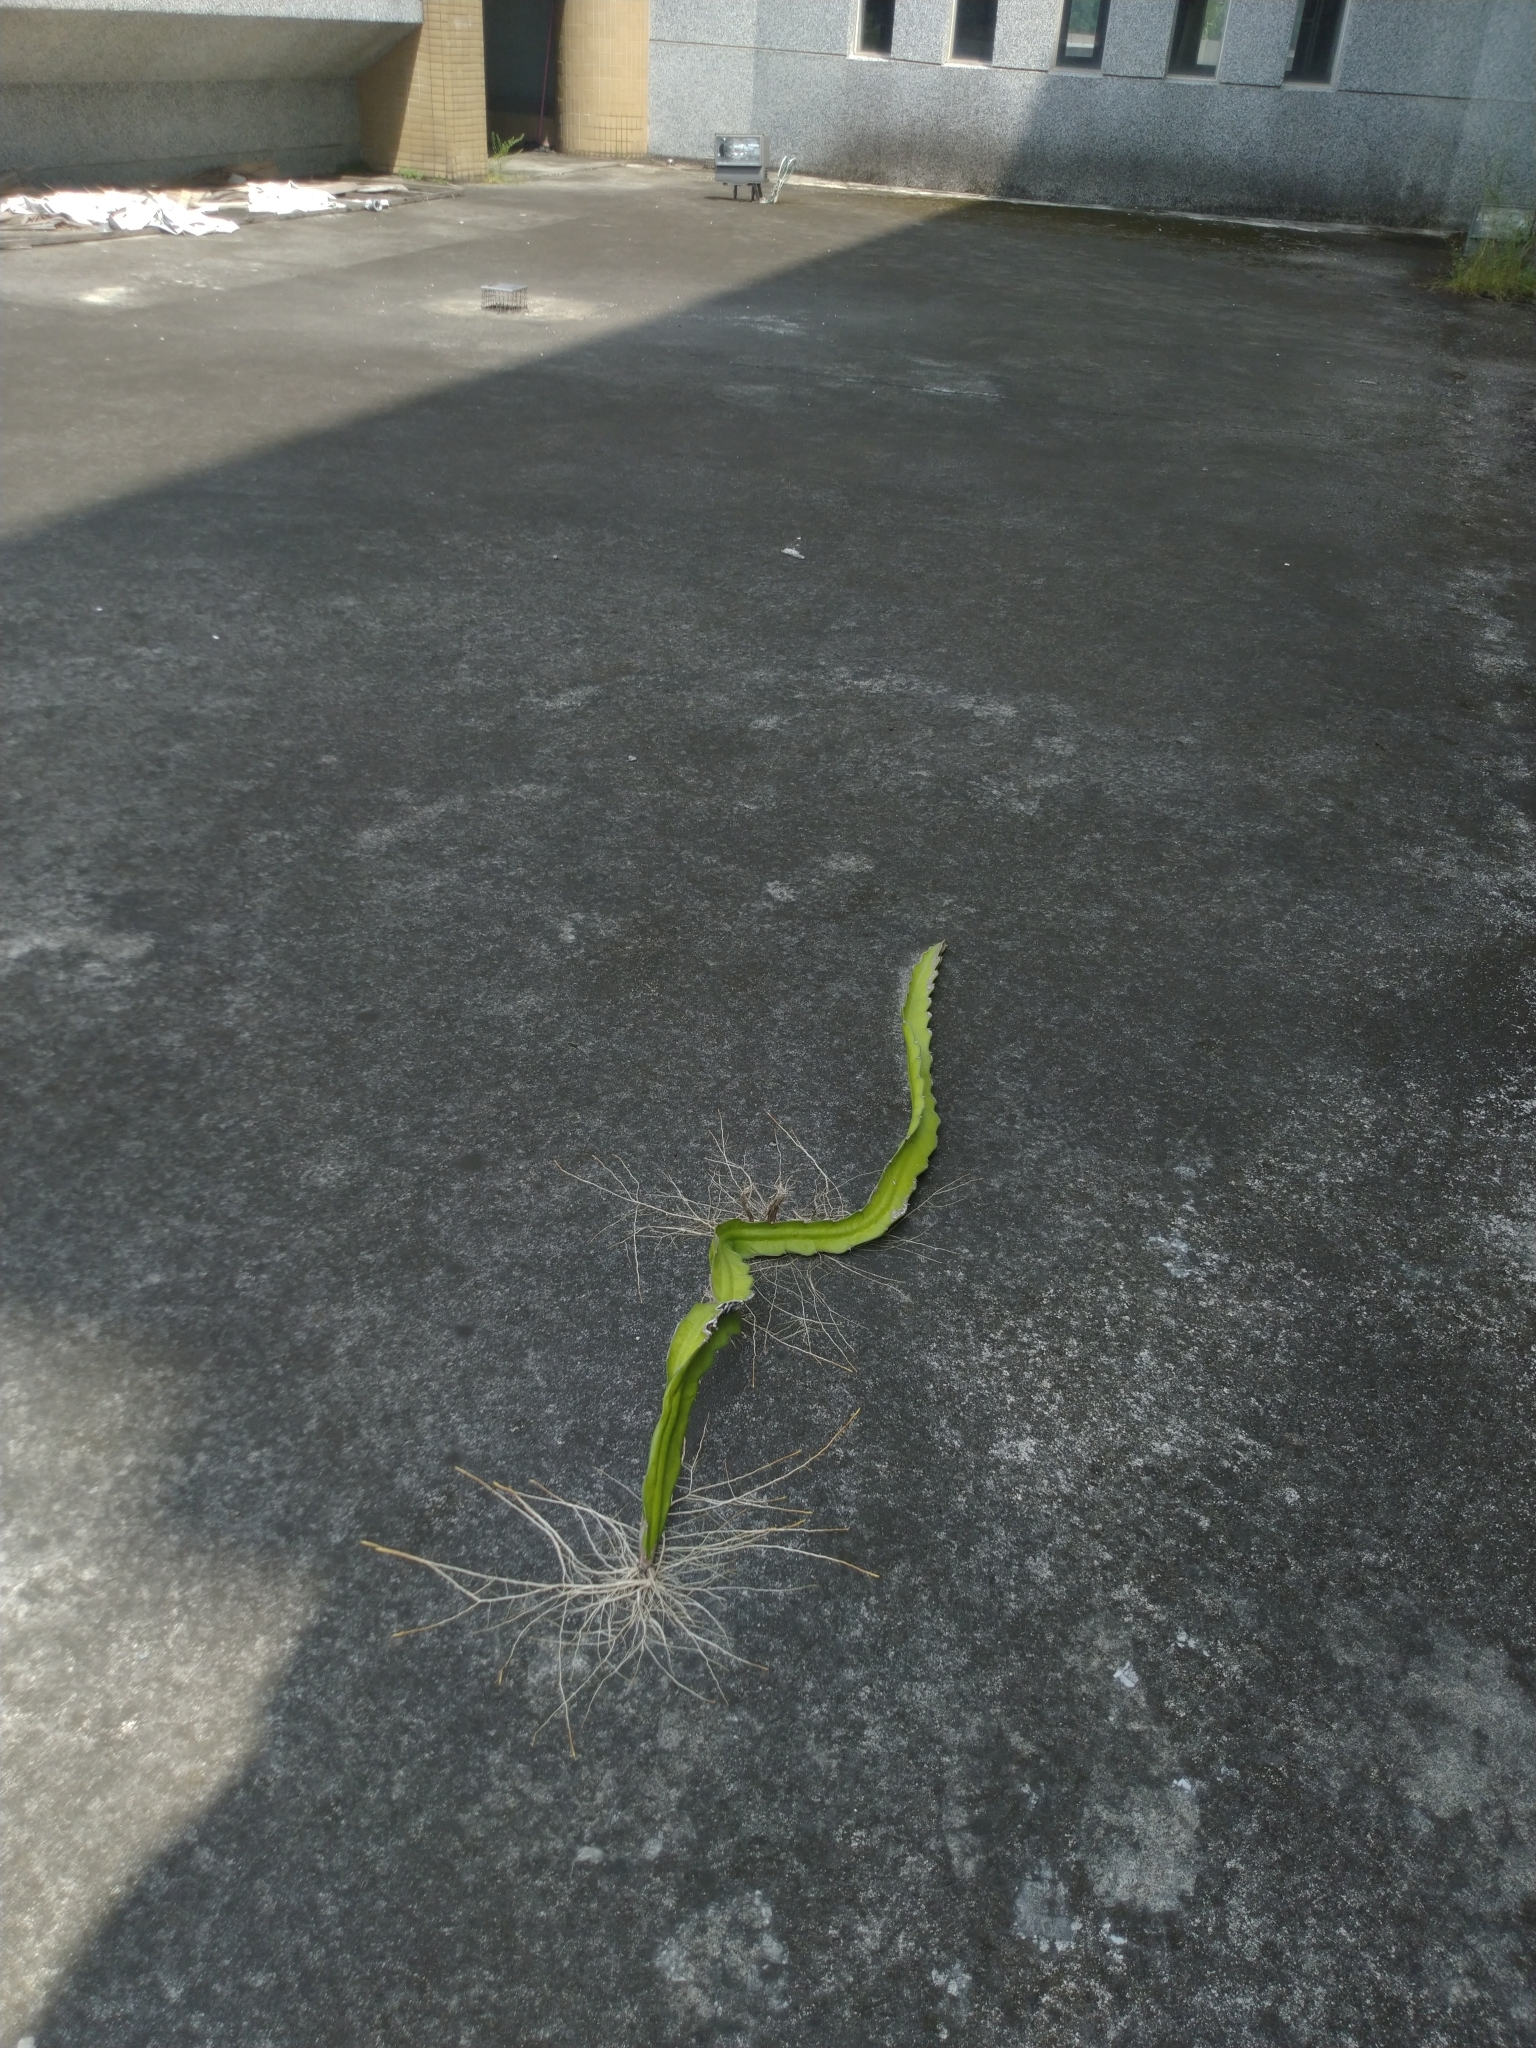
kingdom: Plantae
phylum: Tracheophyta
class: Magnoliopsida
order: Caryophyllales
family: Cactaceae
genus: Selenicereus
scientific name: Selenicereus undatus
